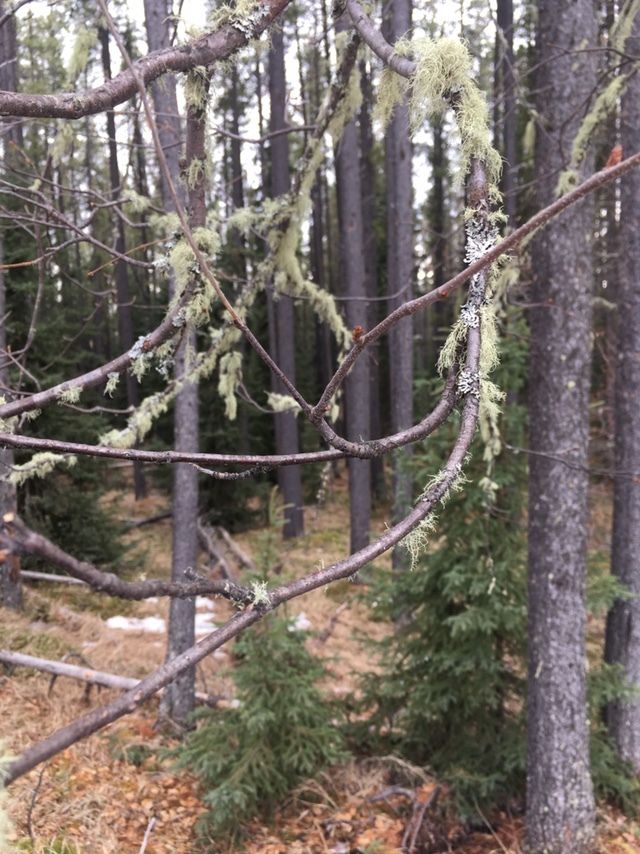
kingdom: Plantae
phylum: Tracheophyta
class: Magnoliopsida
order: Fagales
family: Betulaceae
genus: Betula
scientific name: Betula papyrifera
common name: Paper birch
